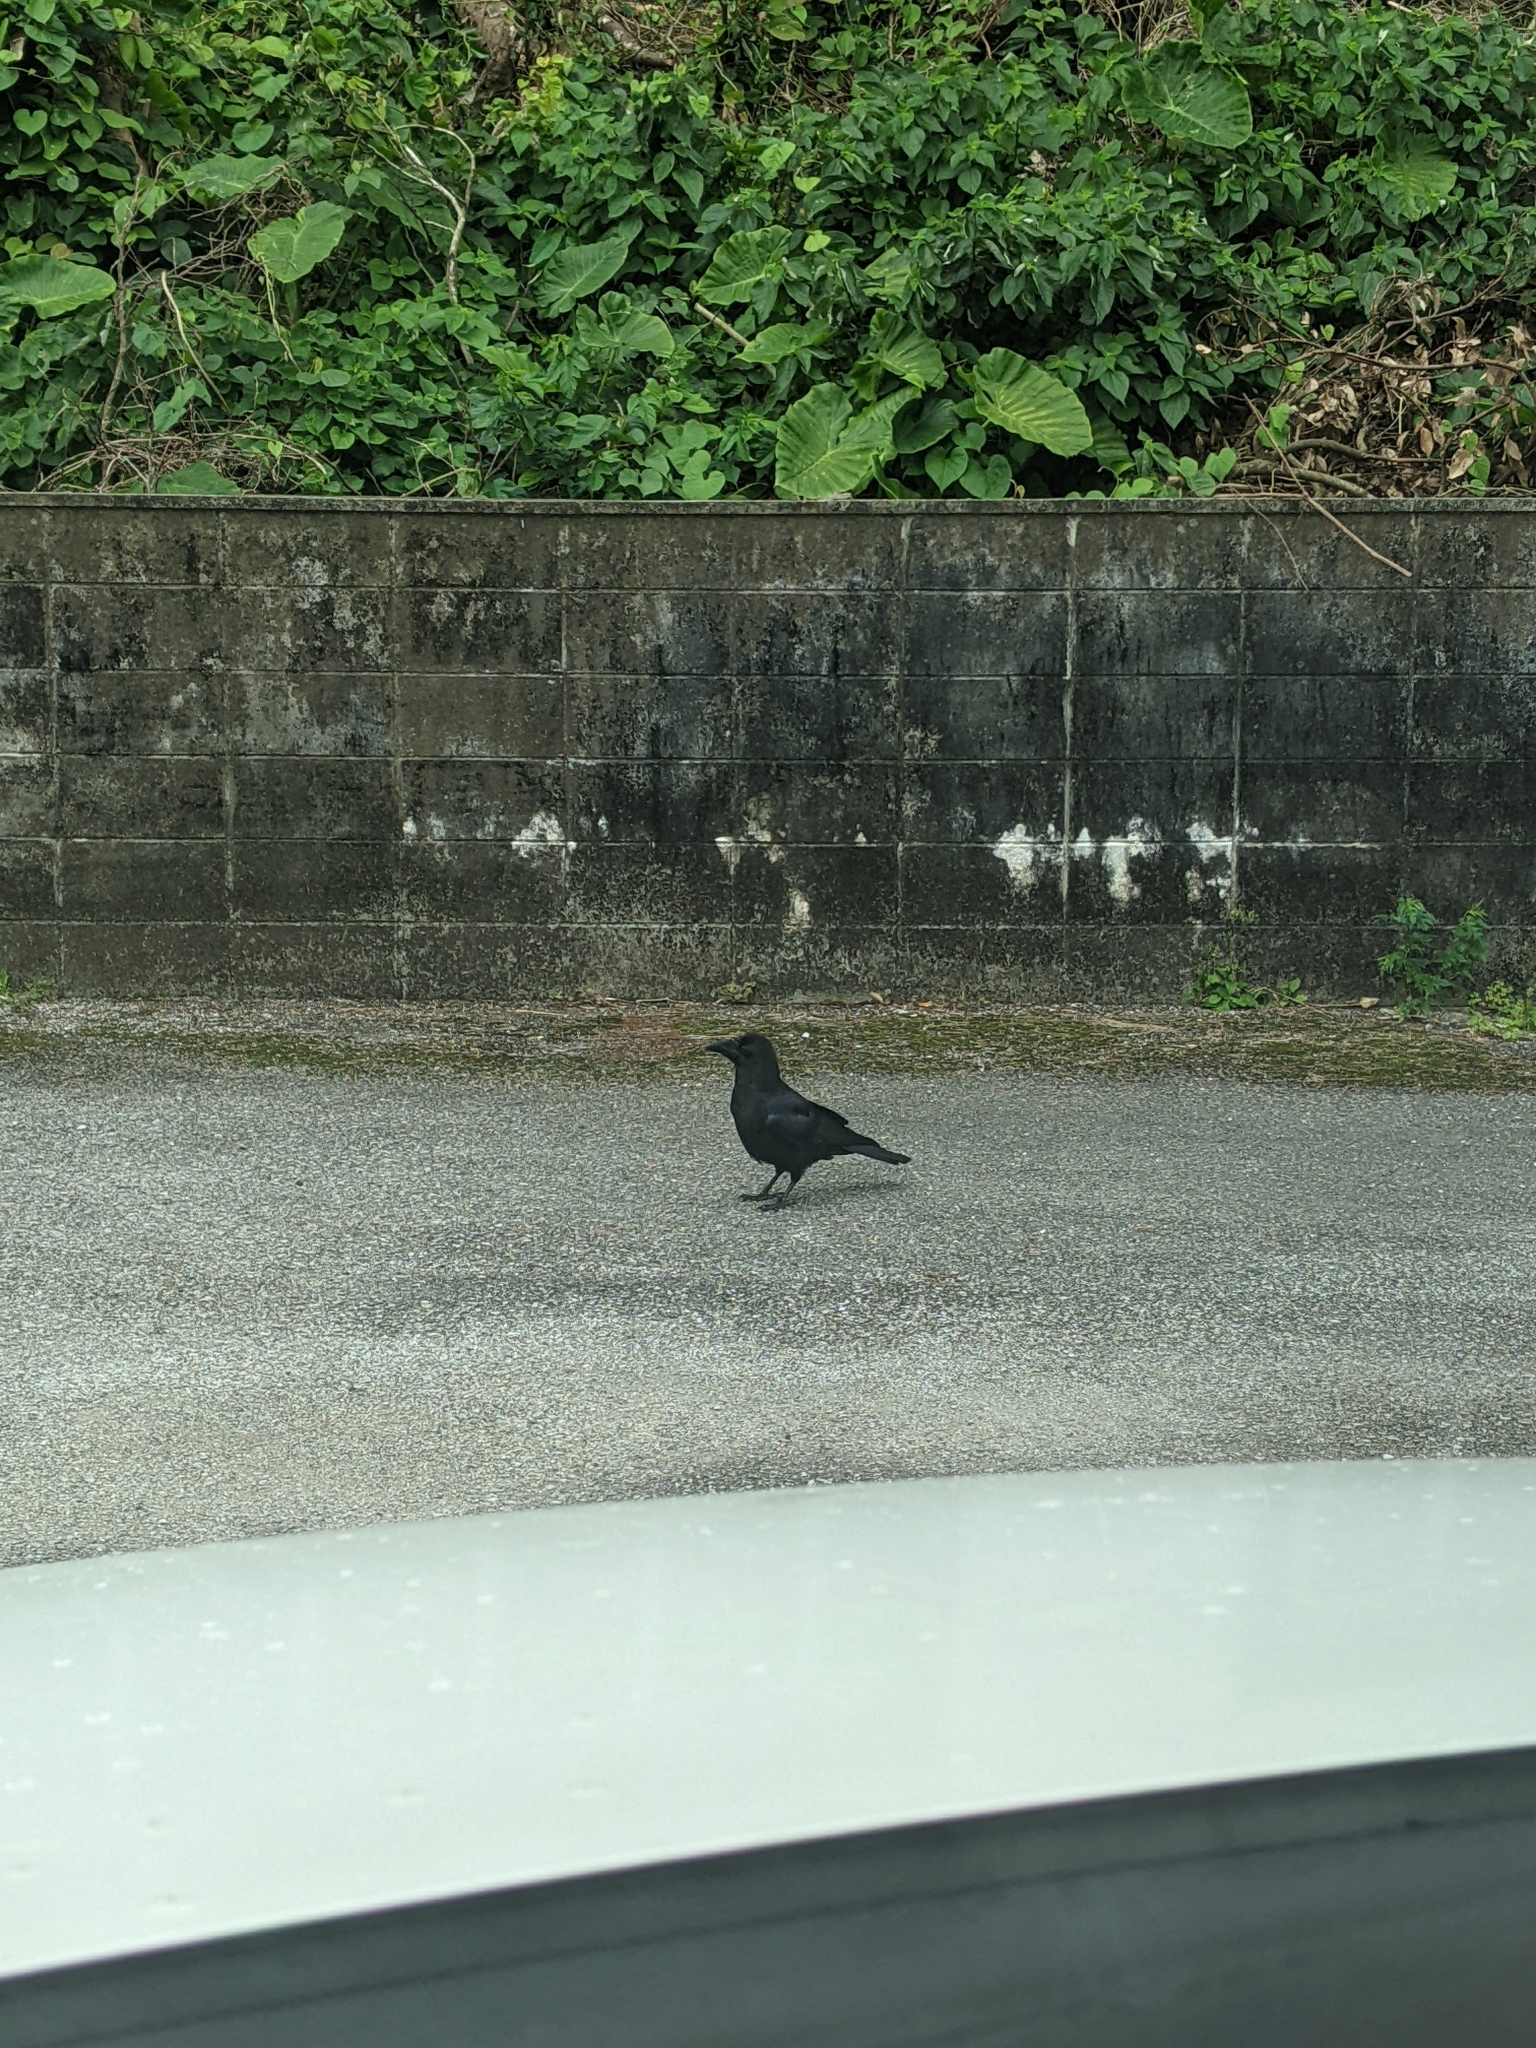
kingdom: Animalia
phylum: Chordata
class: Aves
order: Passeriformes
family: Corvidae
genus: Corvus
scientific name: Corvus macrorhynchos
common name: Large-billed crow
